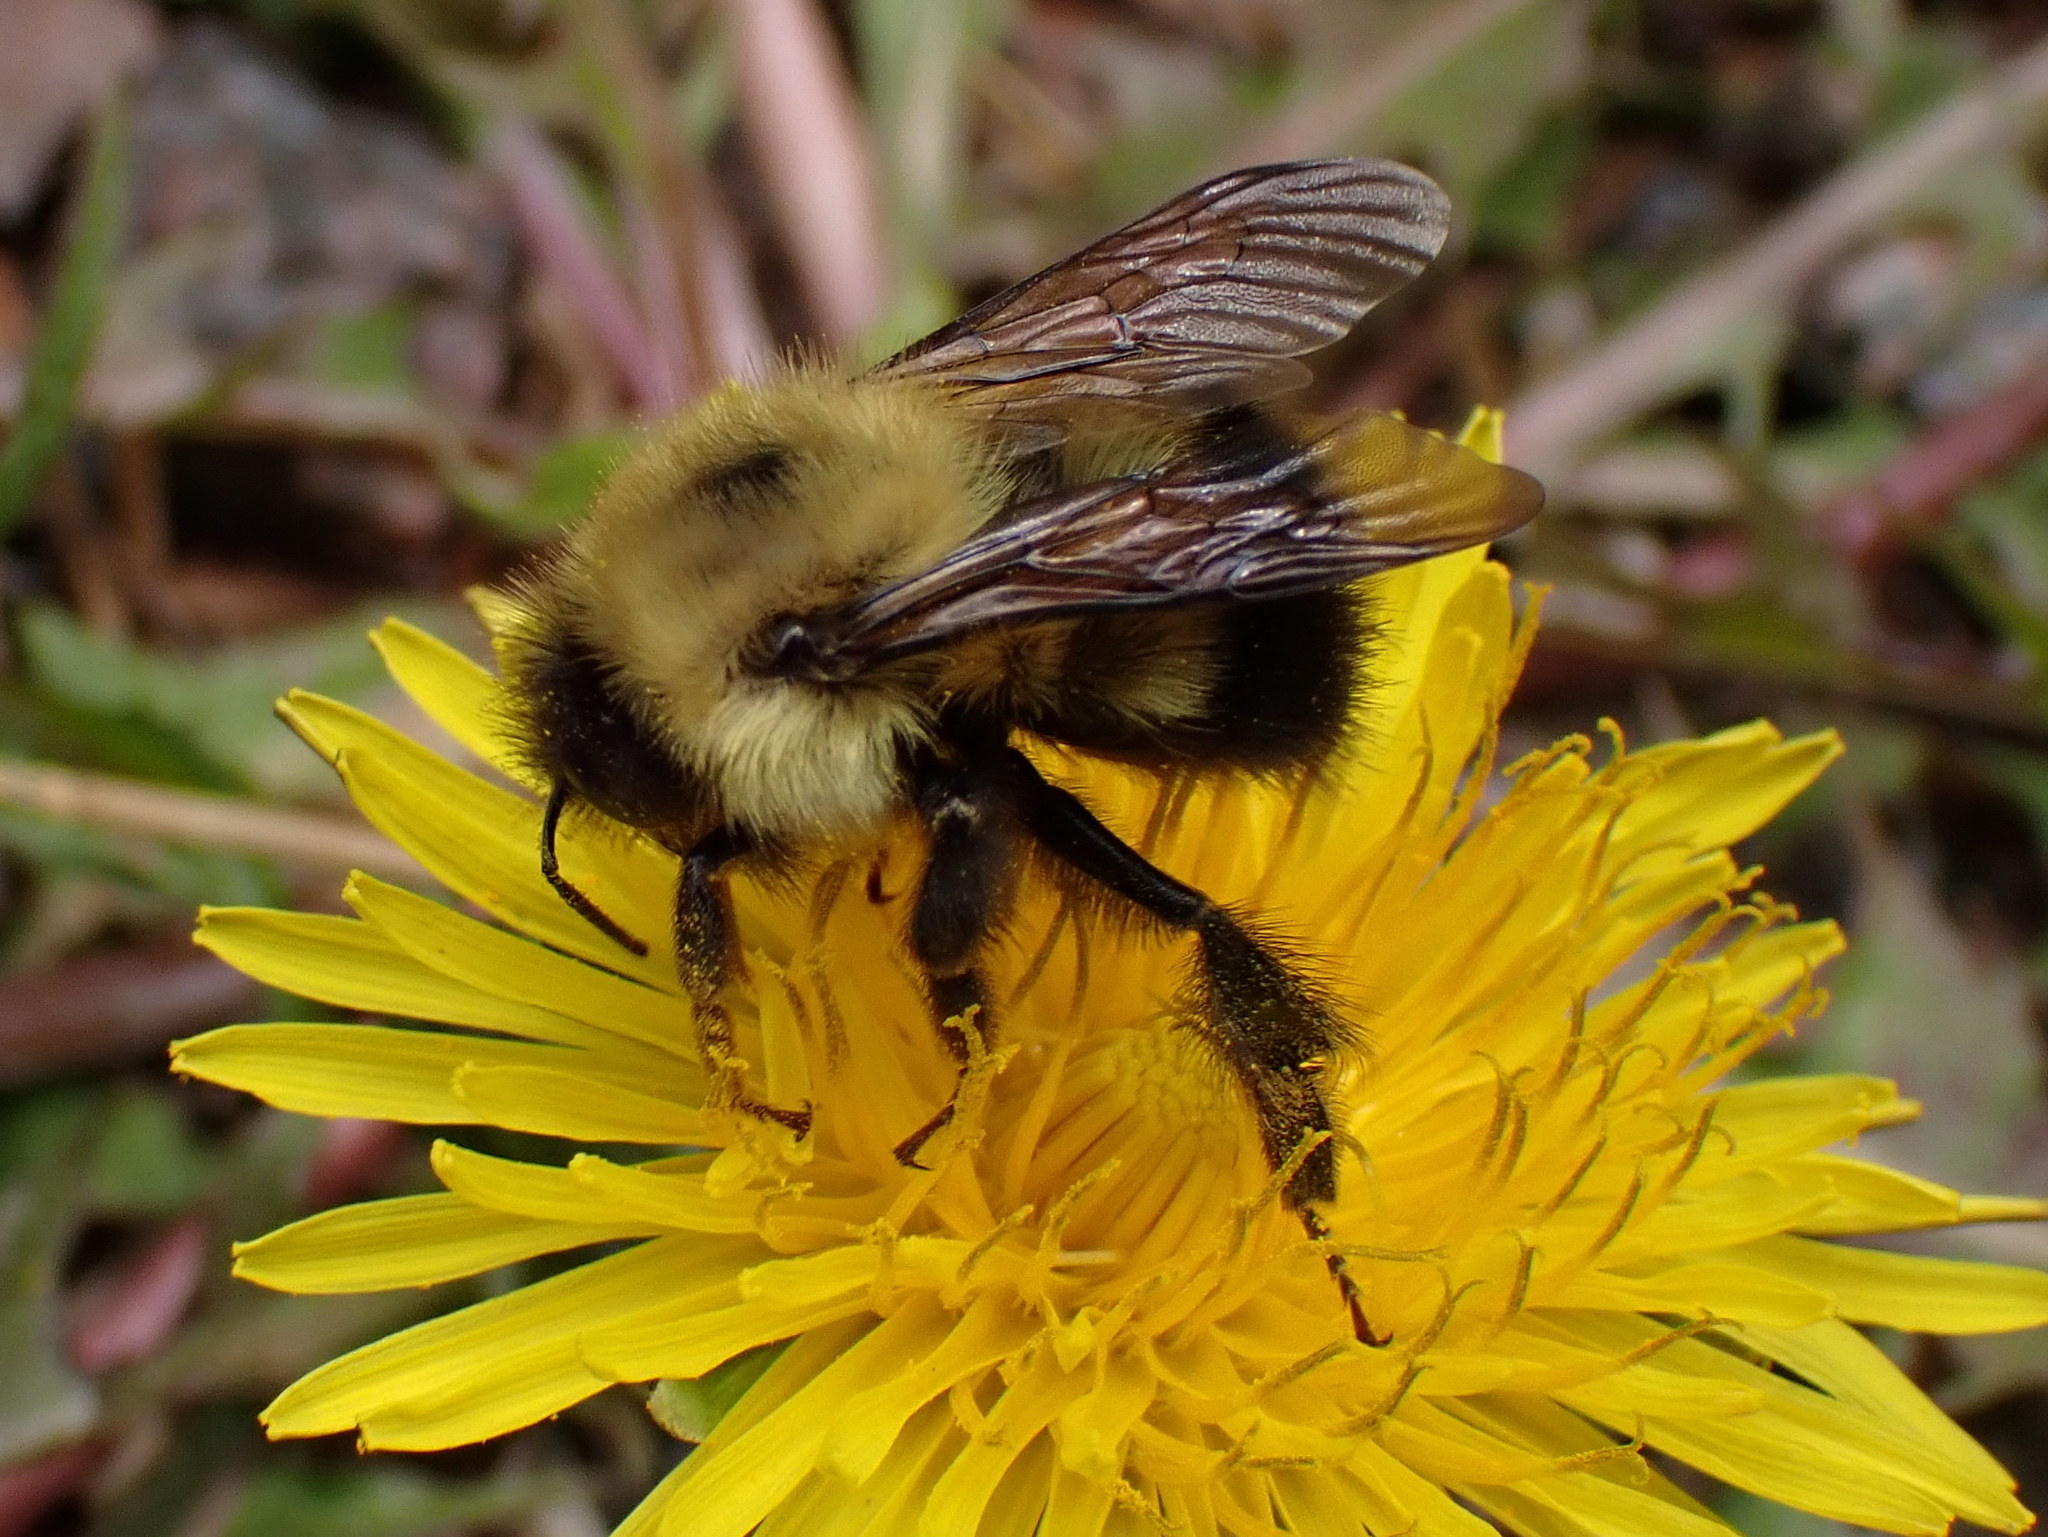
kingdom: Animalia
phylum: Arthropoda
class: Insecta
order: Hymenoptera
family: Apidae
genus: Pyrobombus
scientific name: Pyrobombus
